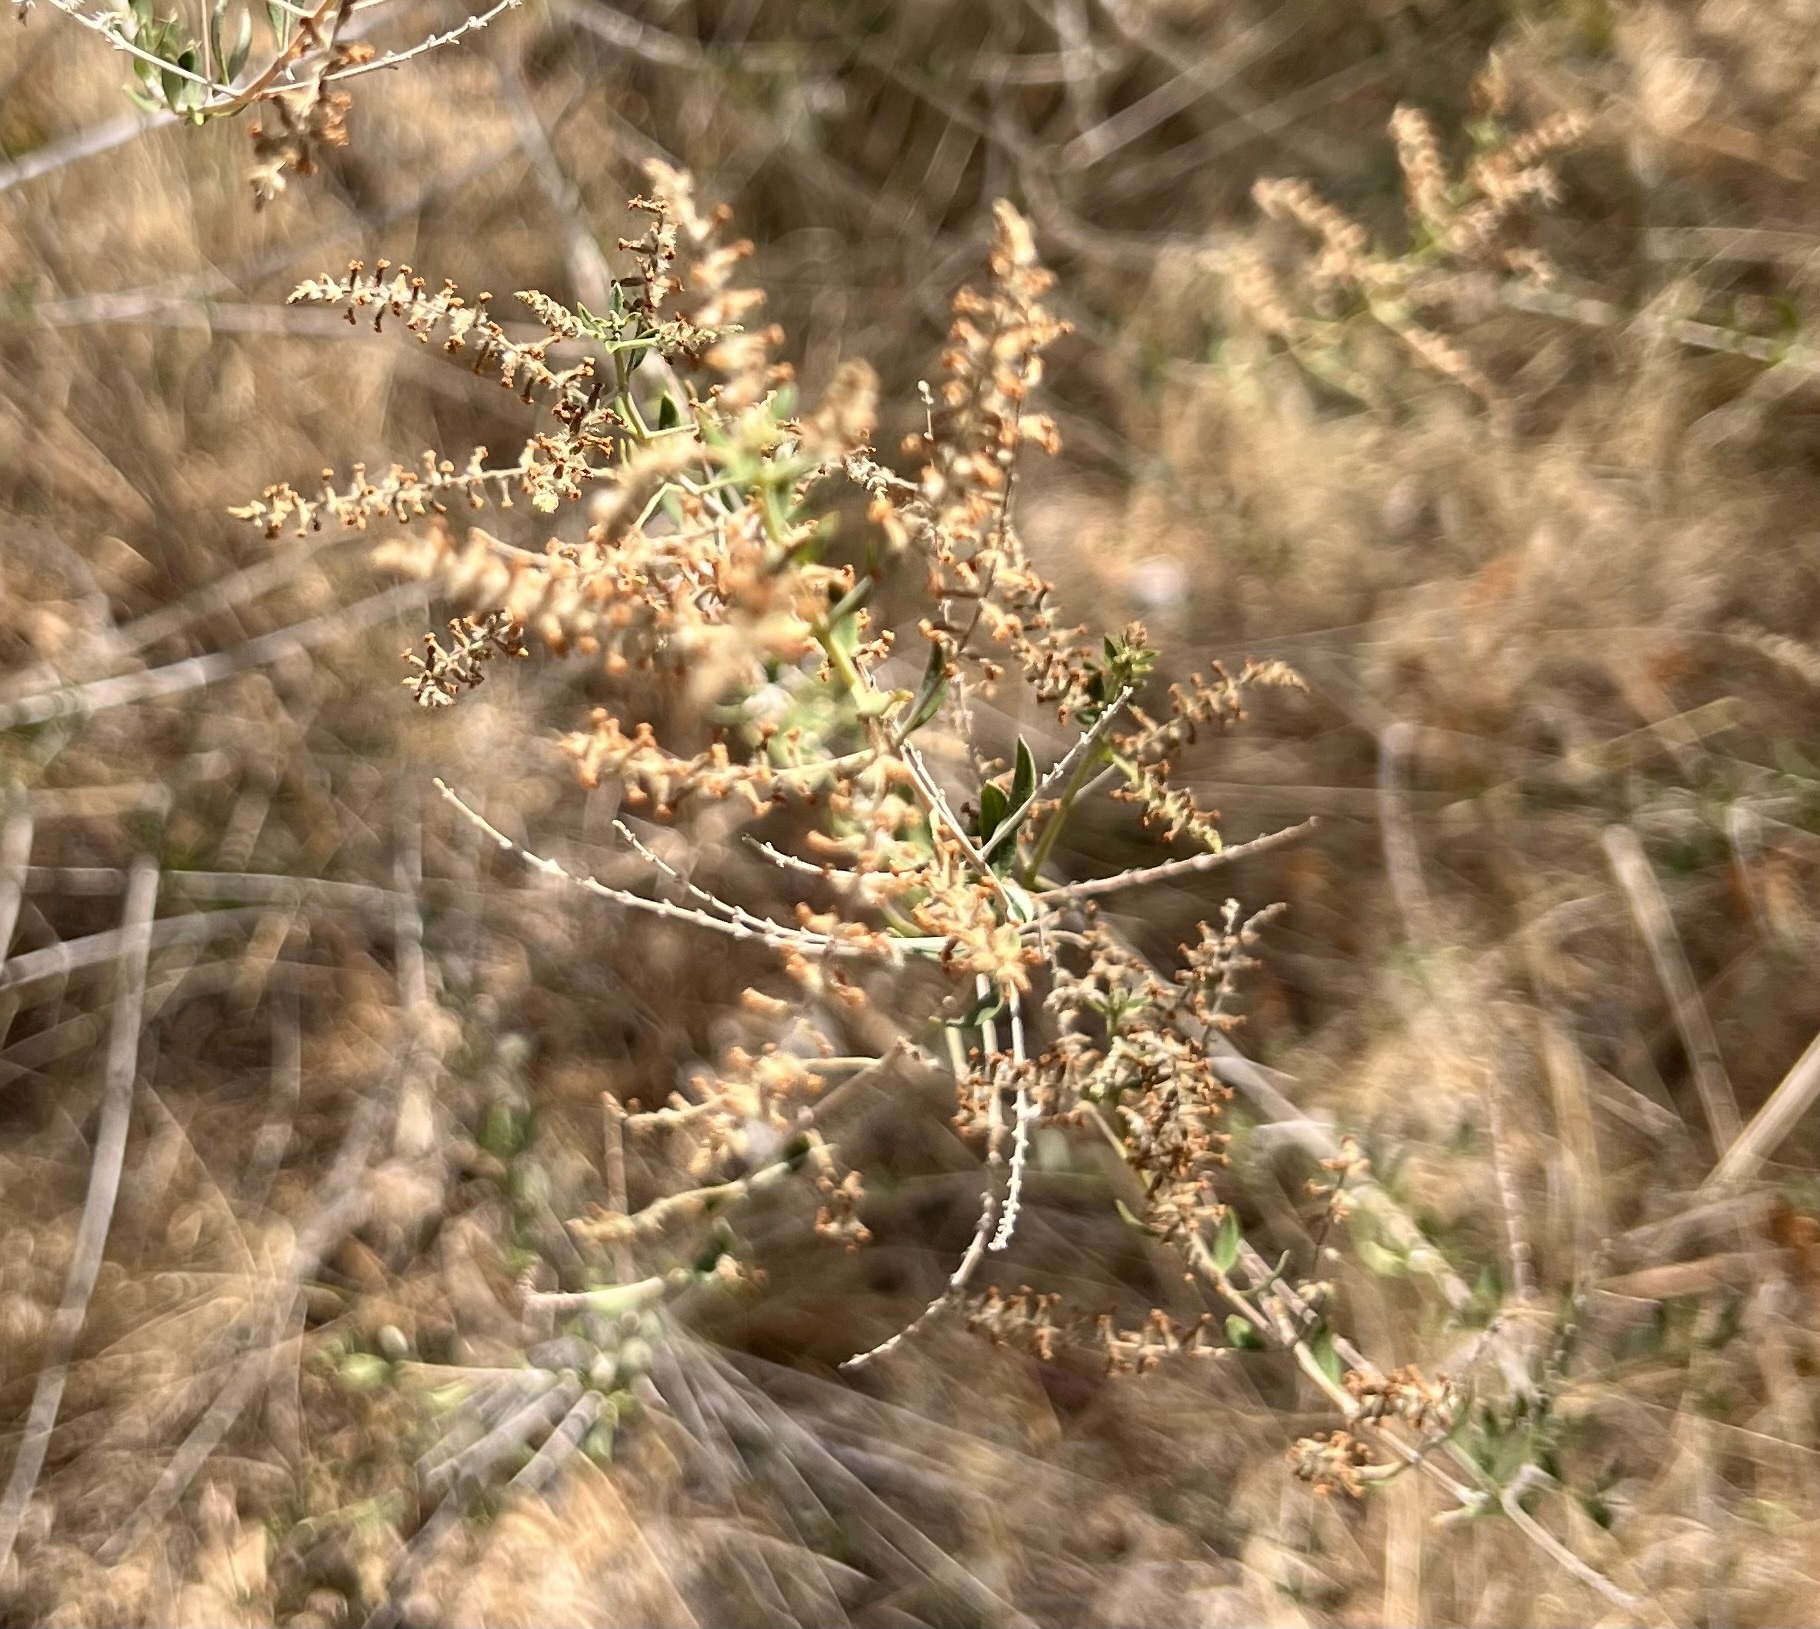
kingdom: Plantae
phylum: Tracheophyta
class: Magnoliopsida
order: Lamiales
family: Verbenaceae
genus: Aloysia
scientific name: Aloysia gratissima
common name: Common bee-brush
